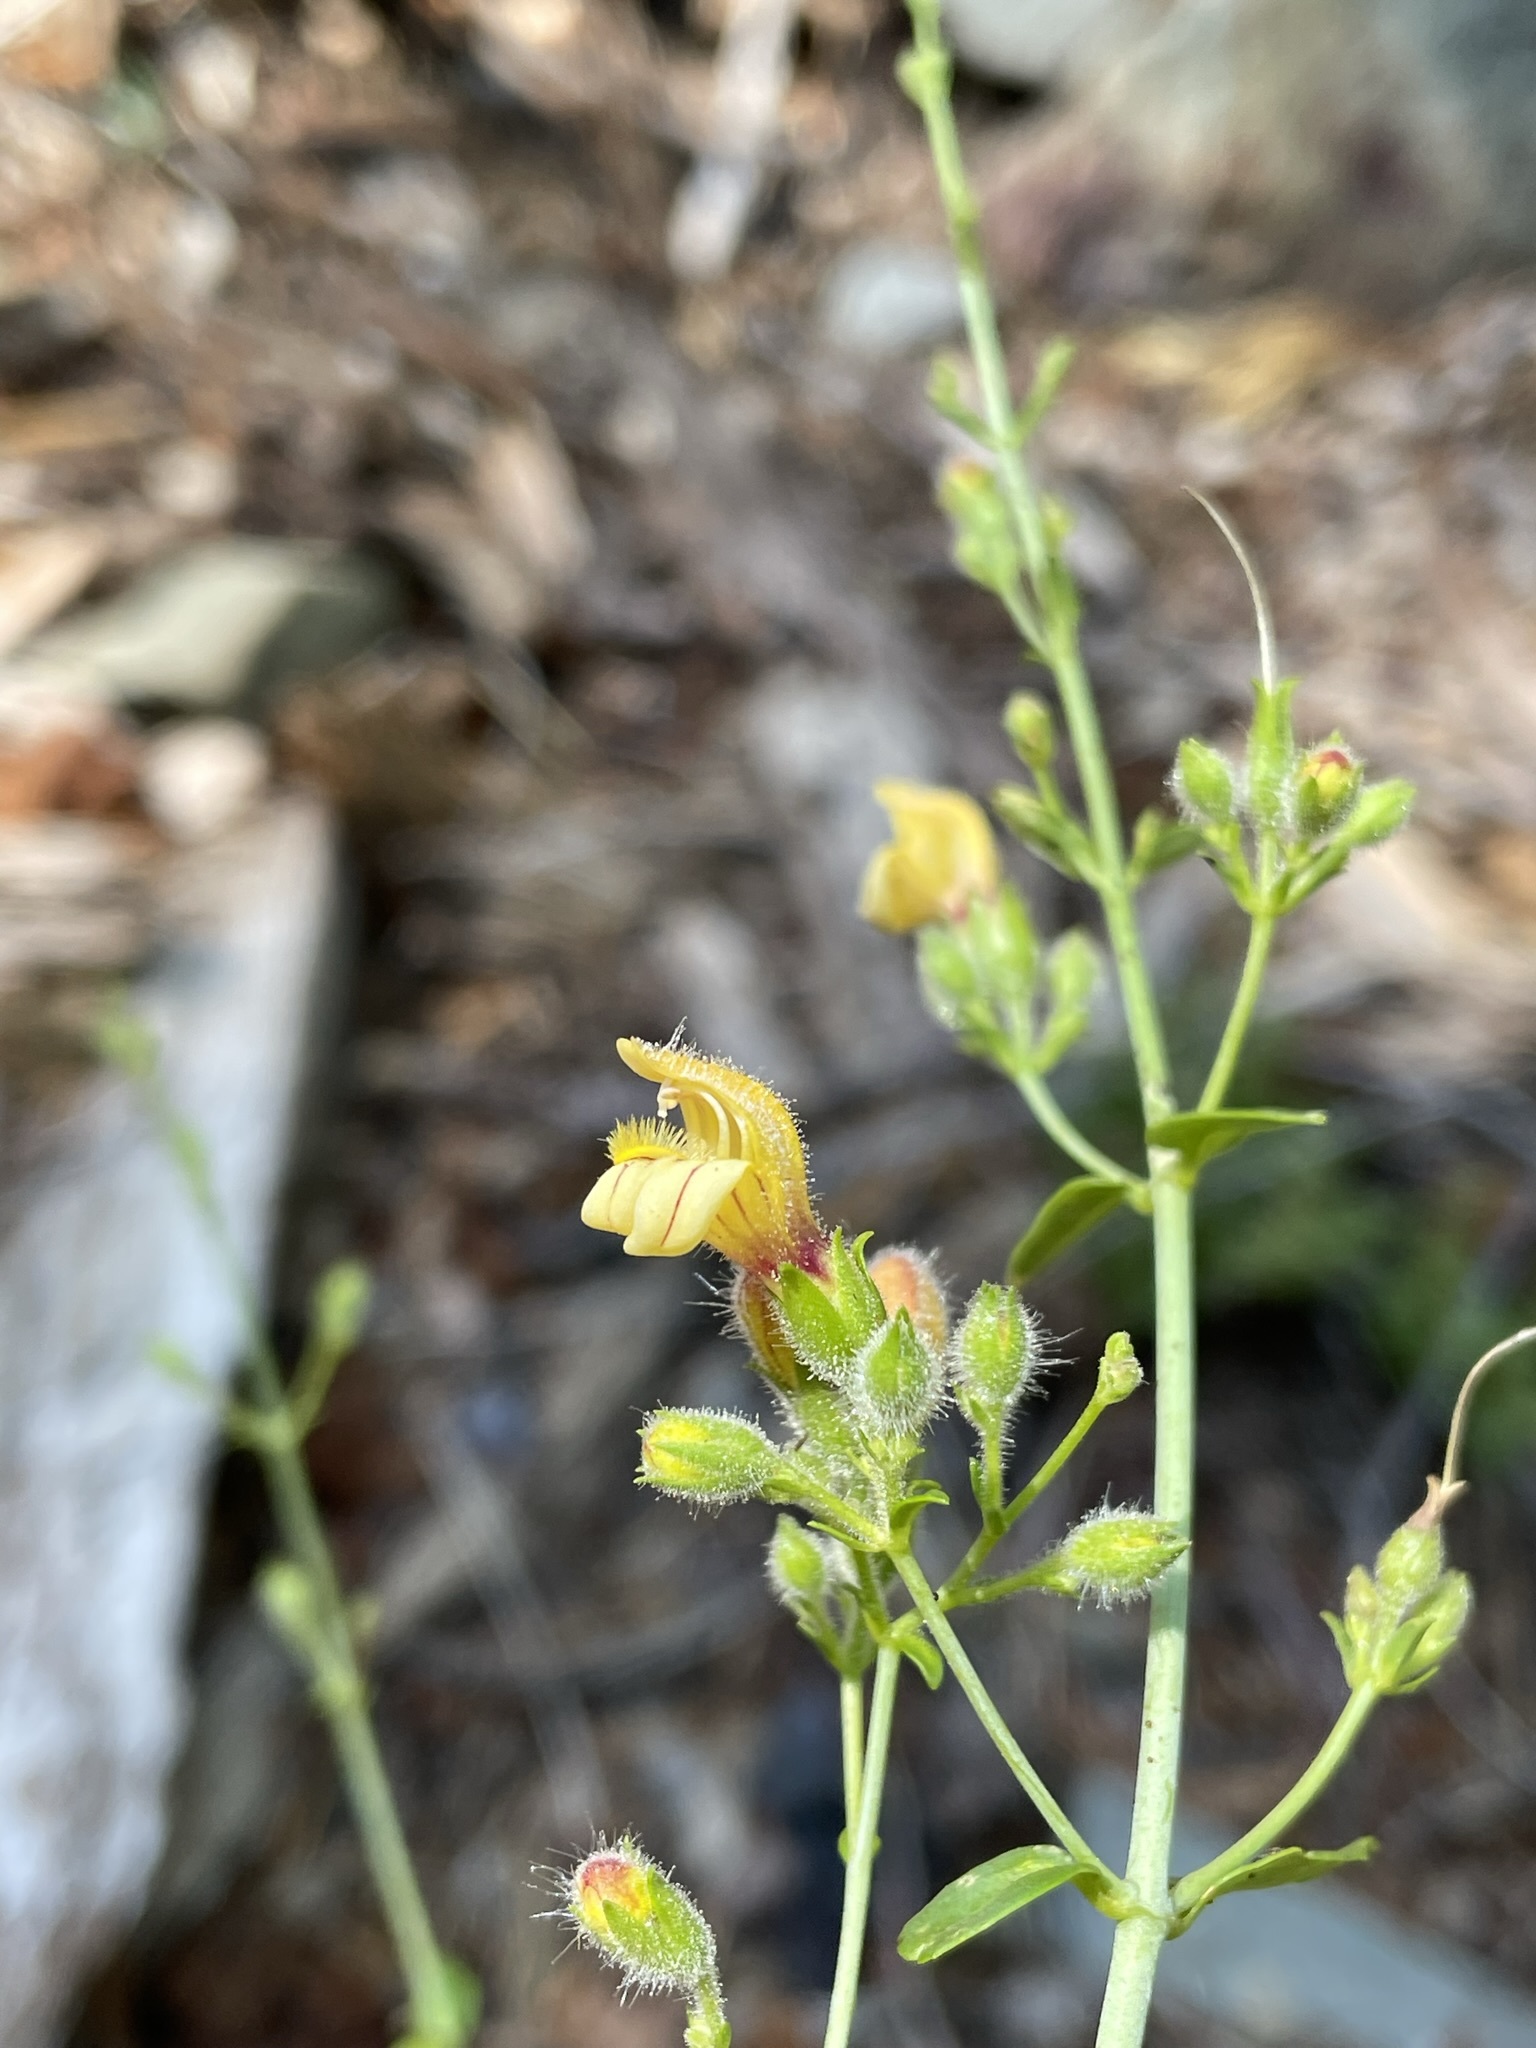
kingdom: Plantae
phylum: Tracheophyta
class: Magnoliopsida
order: Lamiales
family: Plantaginaceae
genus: Keckiella
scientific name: Keckiella lemmonii
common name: Lemmon's keckiella
